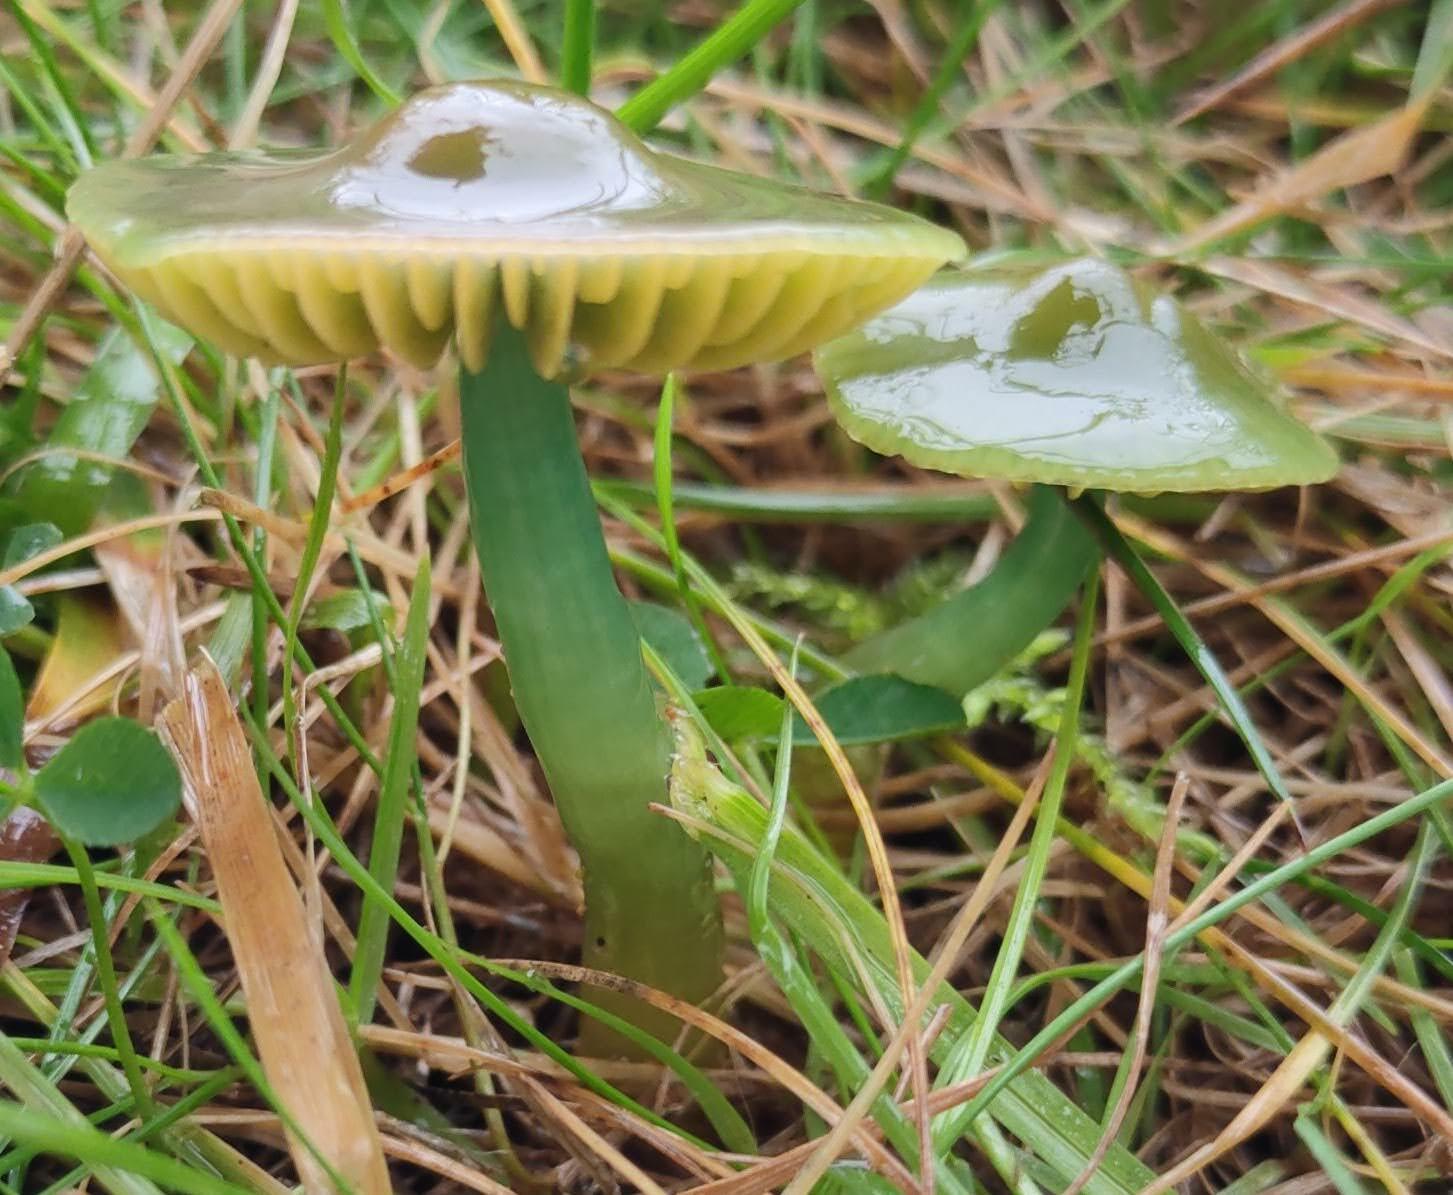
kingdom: Fungi
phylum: Basidiomycota
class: Agaricomycetes
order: Agaricales
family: Hygrophoraceae
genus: Gliophorus
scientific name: Gliophorus psittacinus
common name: Parrot wax-cap
